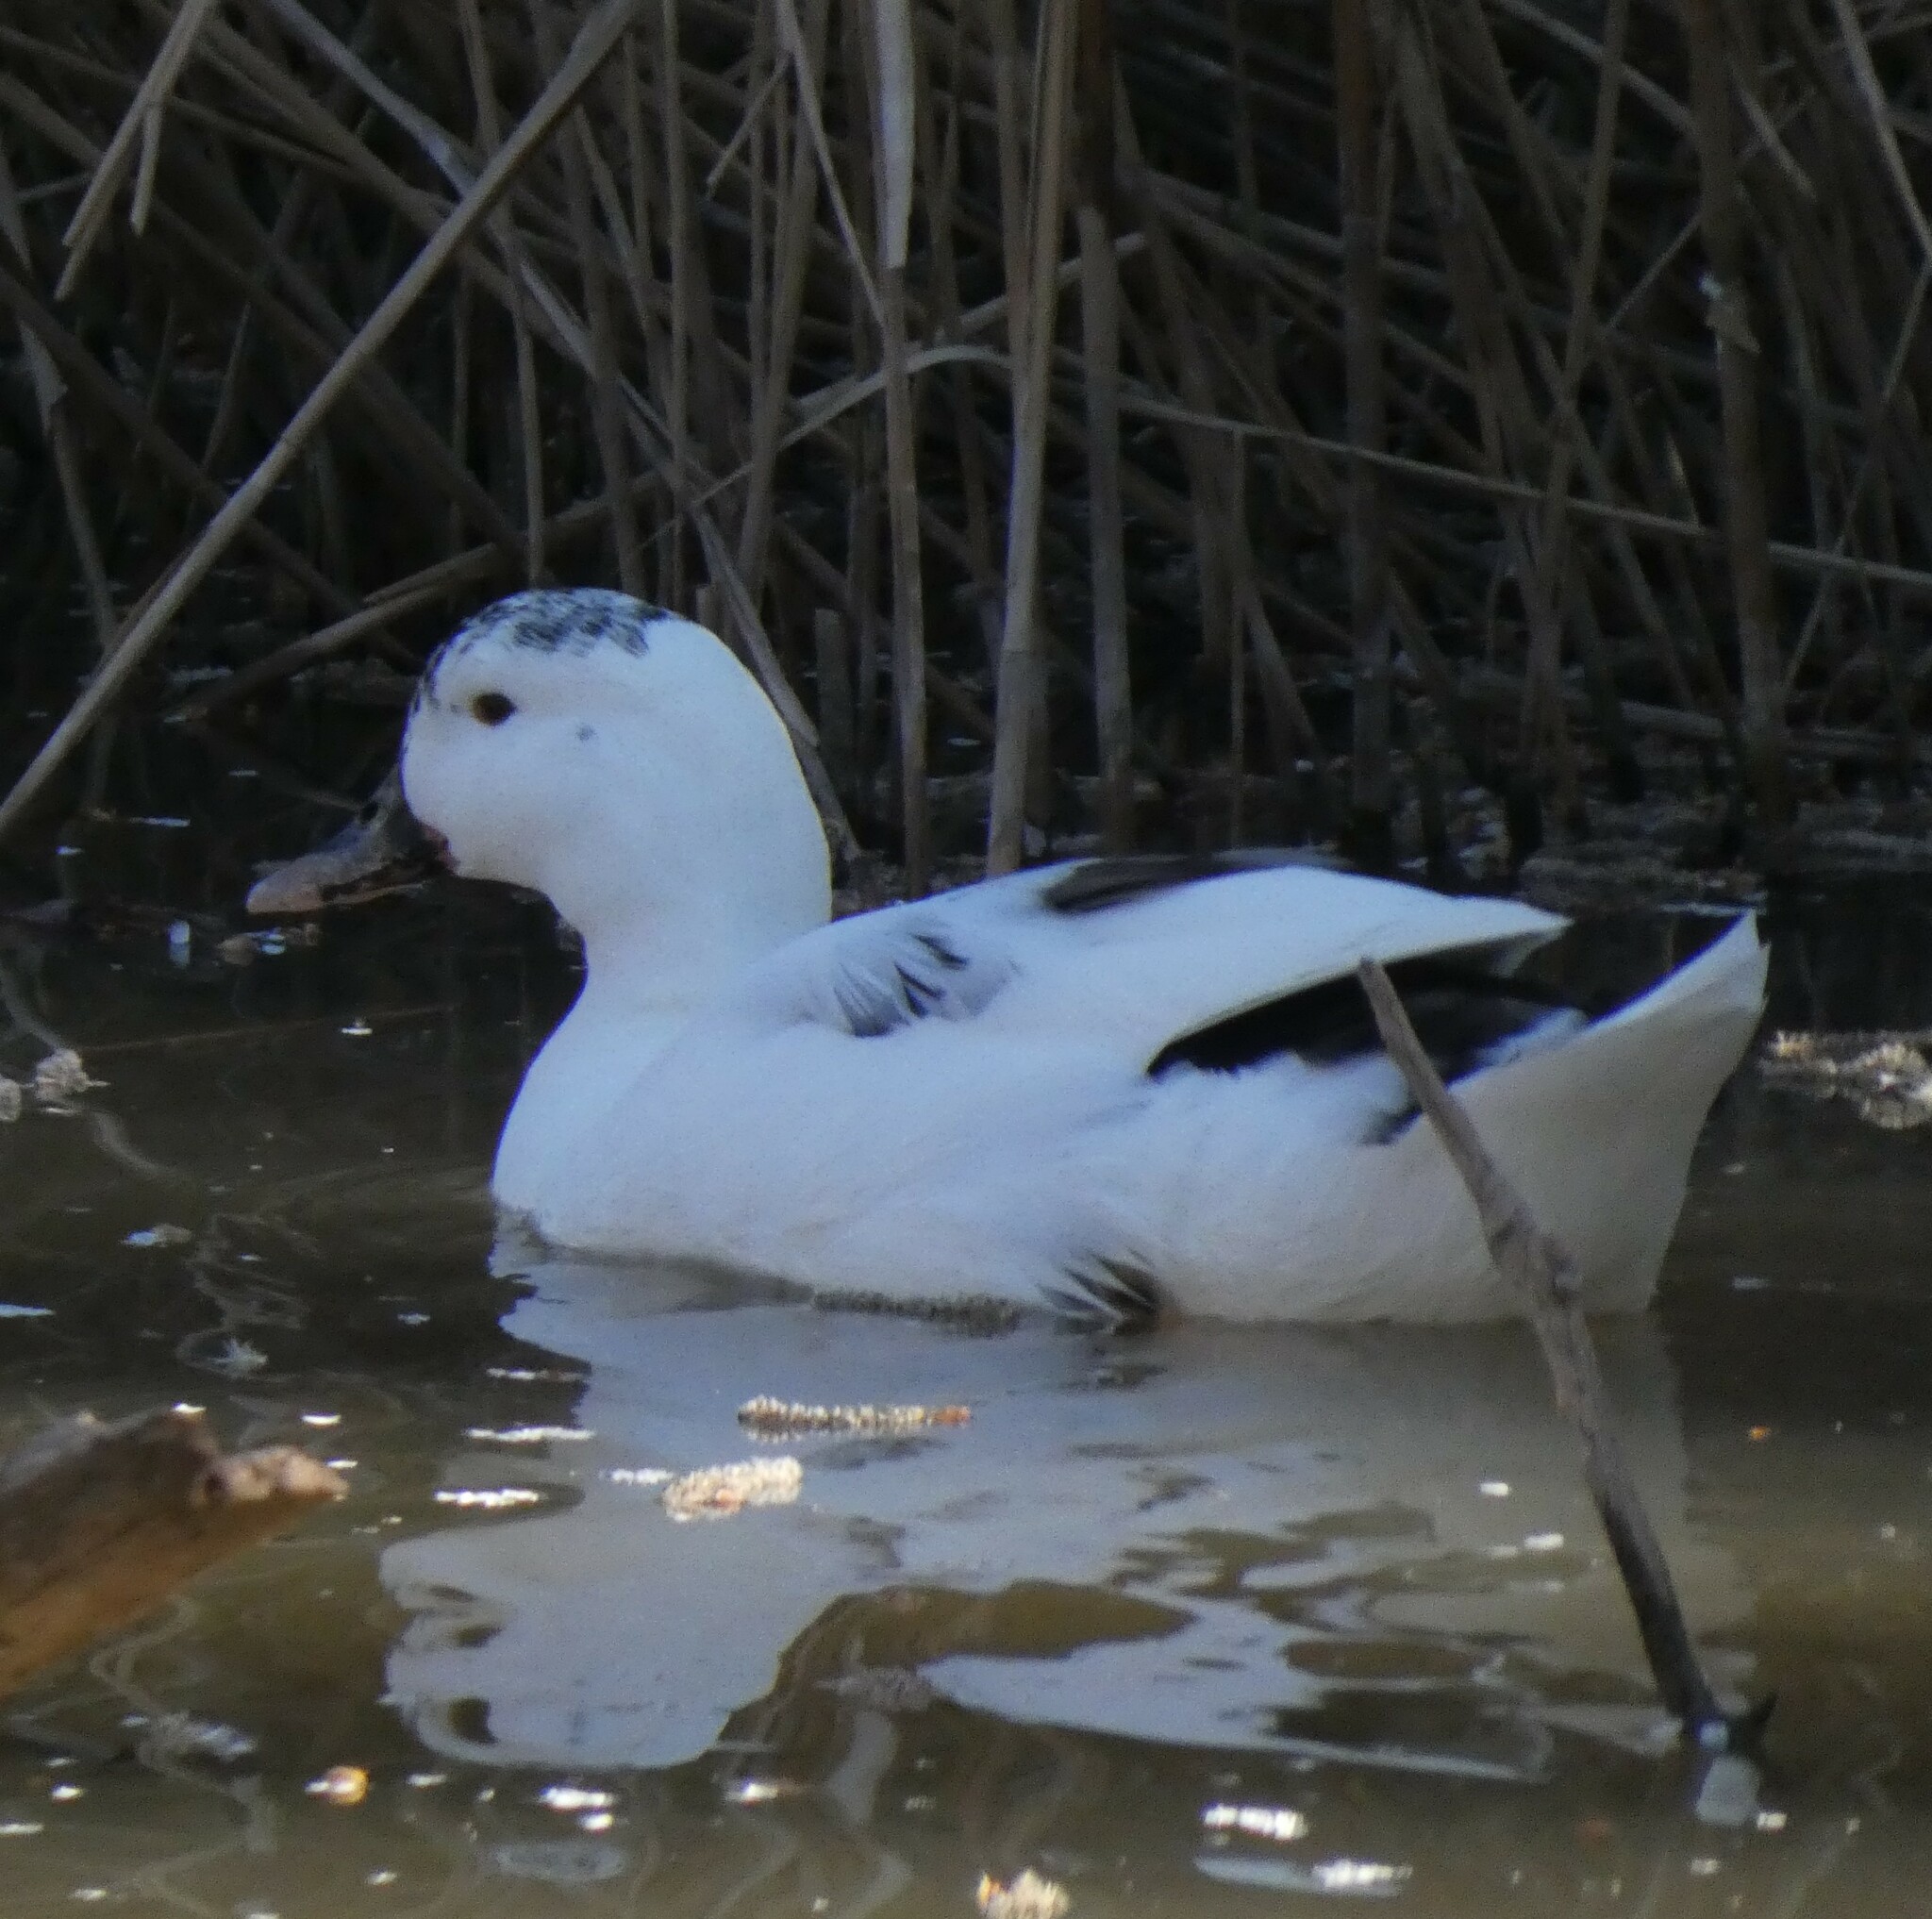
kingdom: Animalia
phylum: Chordata
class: Aves
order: Anseriformes
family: Anatidae
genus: Anas
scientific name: Anas platyrhynchos
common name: Mallard
